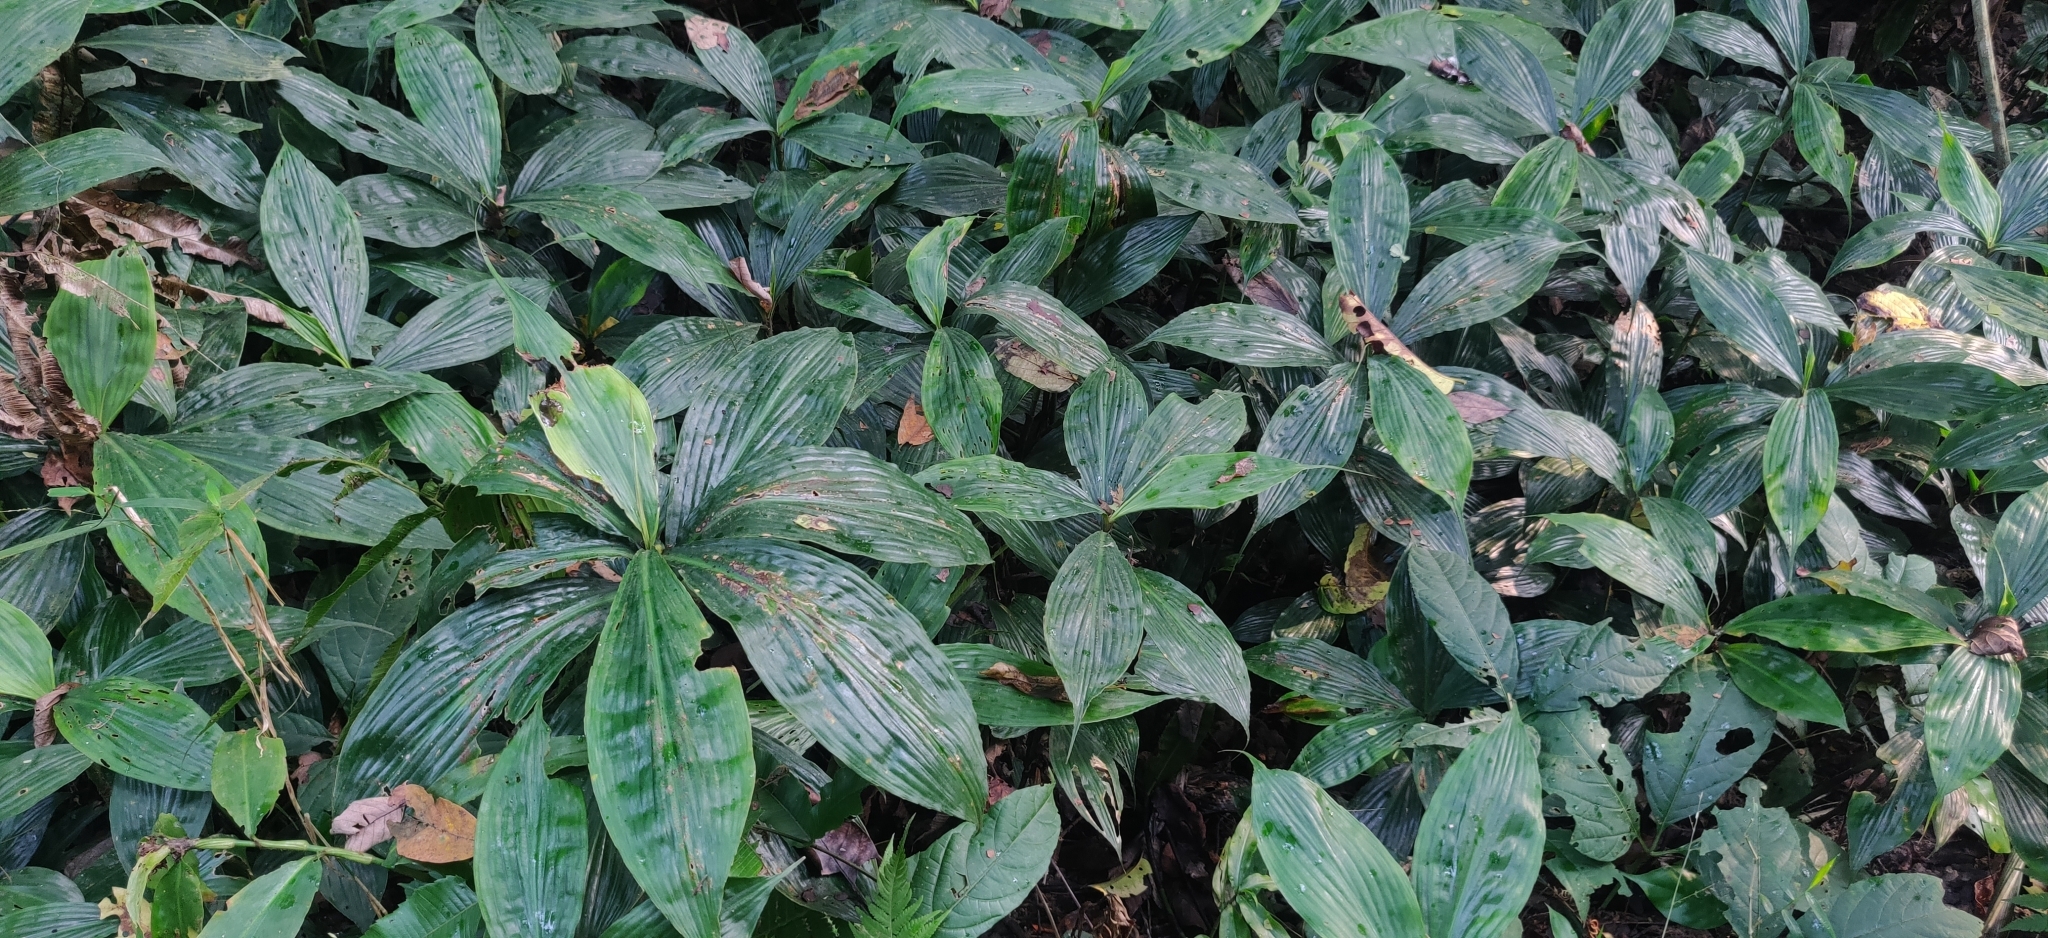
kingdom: Plantae
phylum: Tracheophyta
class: Liliopsida
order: Commelinales
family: Commelinaceae
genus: Amischotolype
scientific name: Amischotolype mollissima
